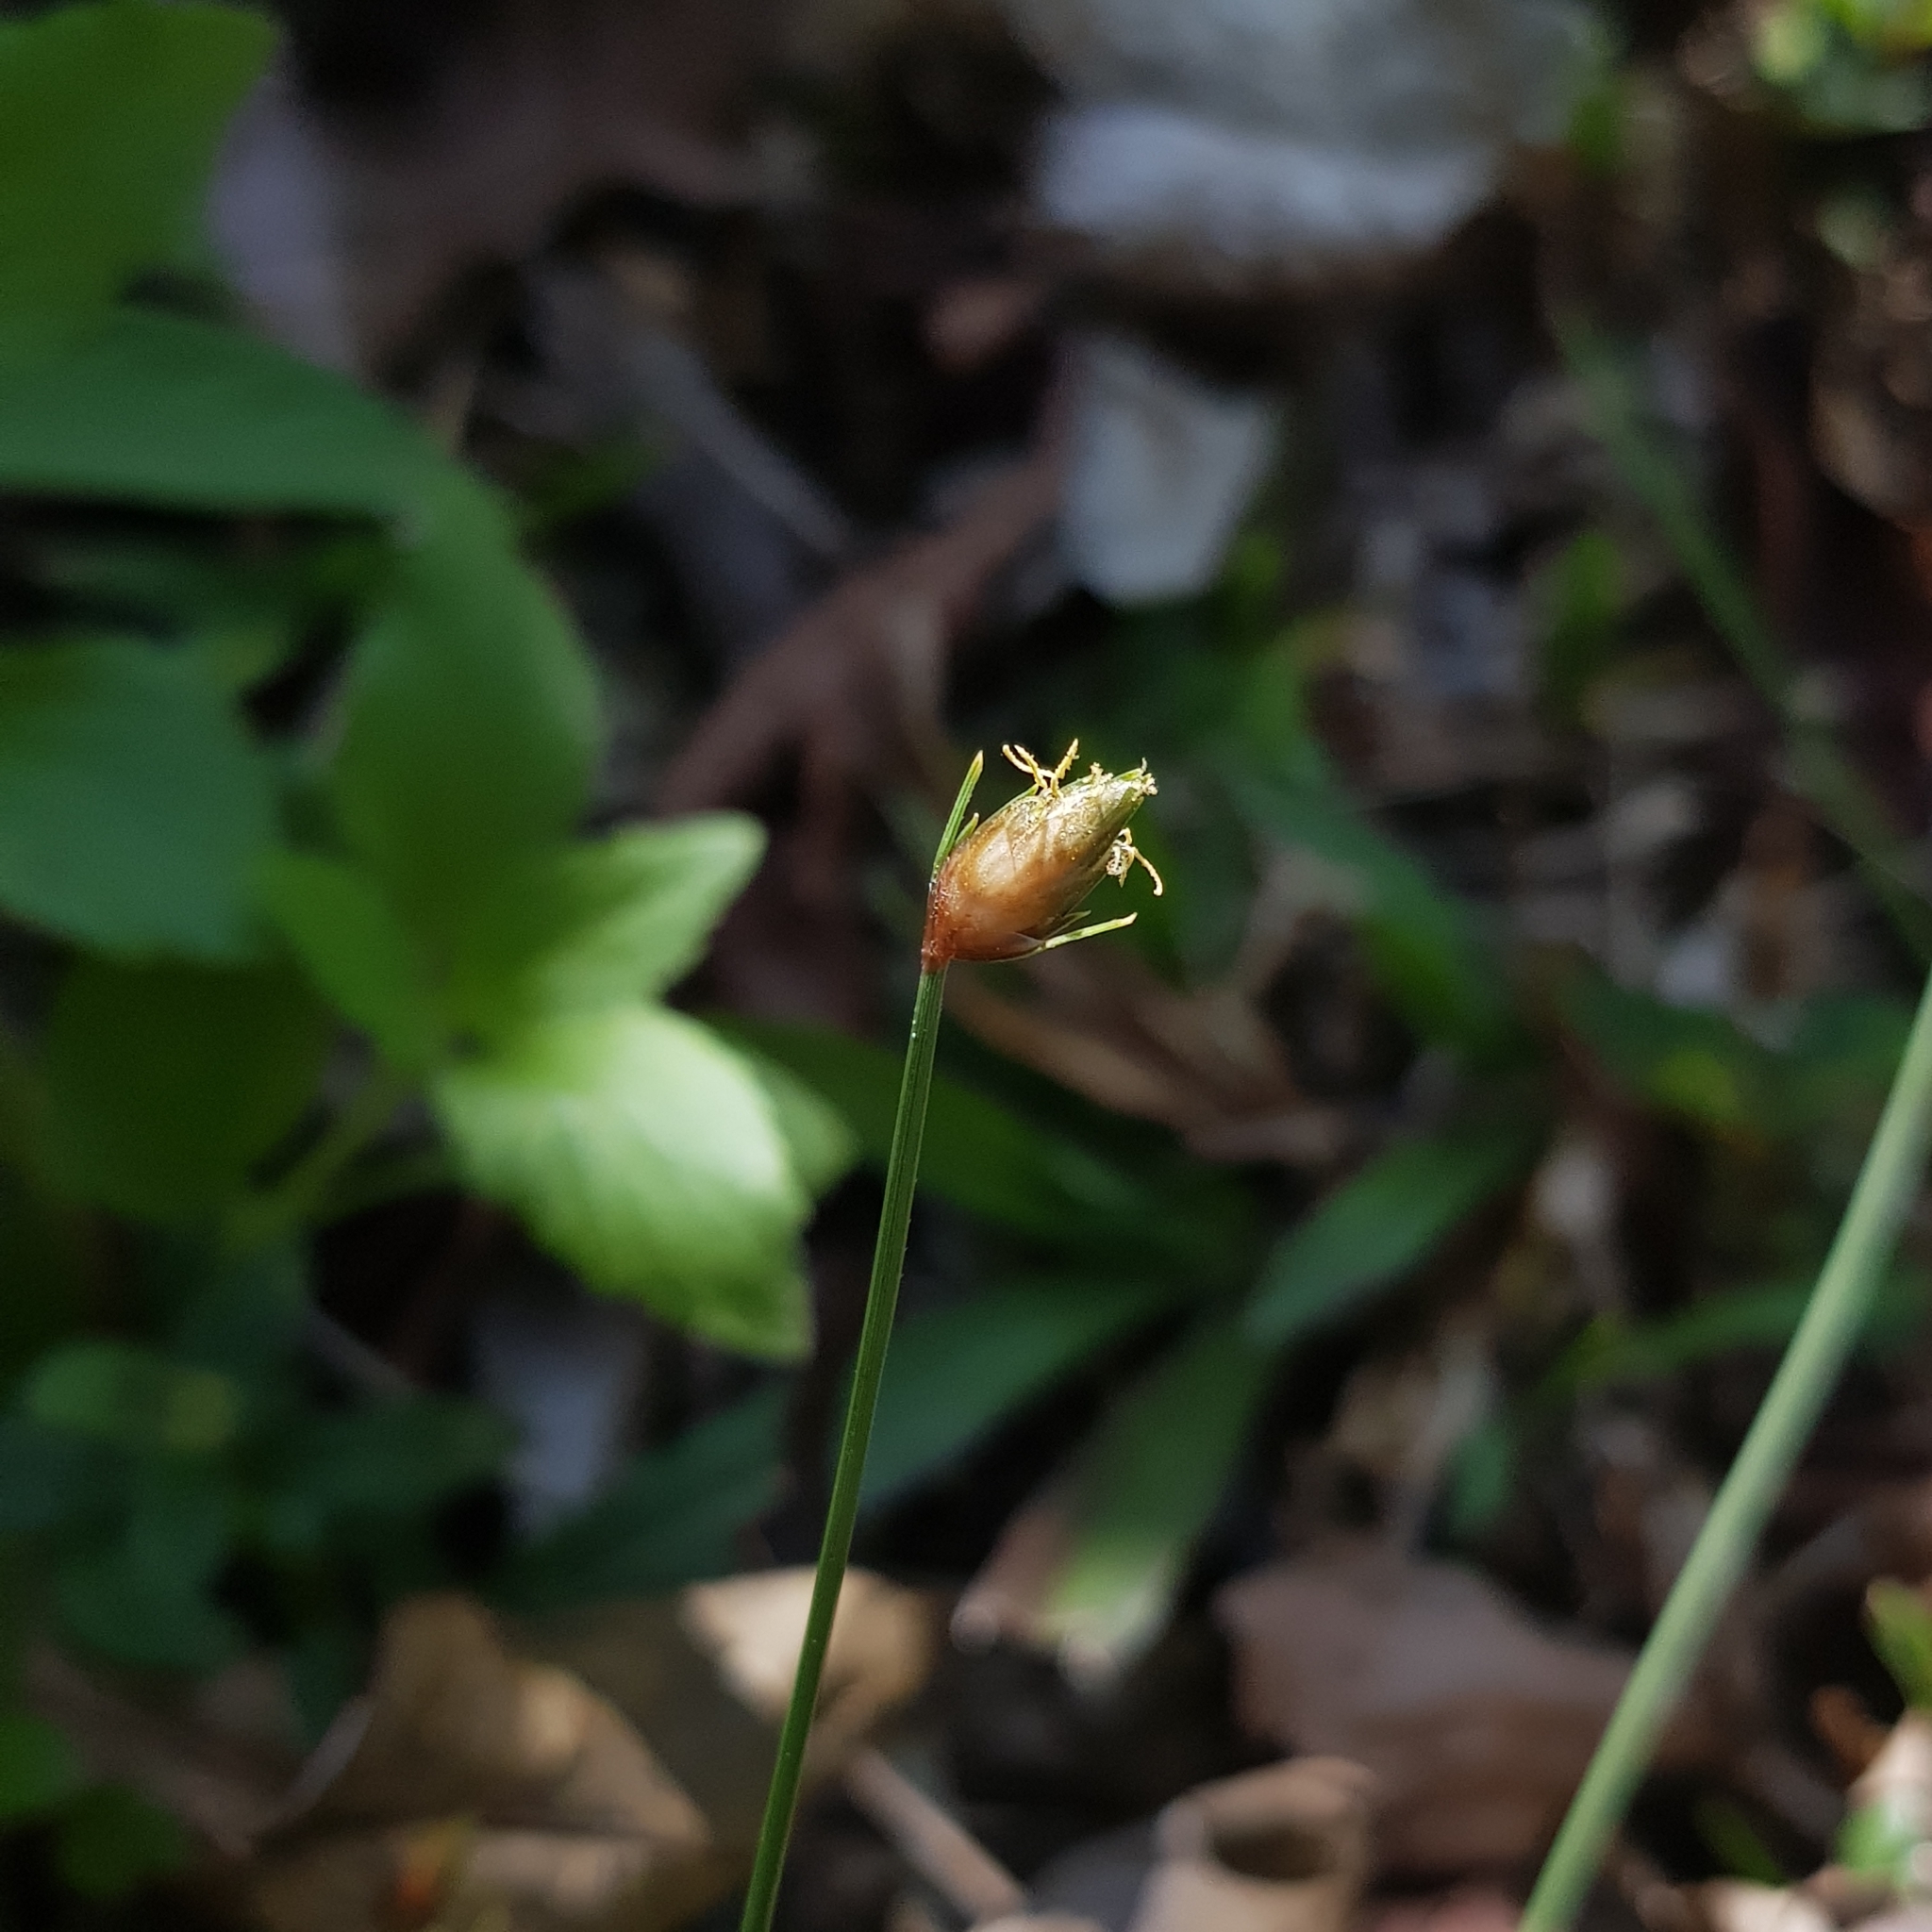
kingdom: Plantae
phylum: Tracheophyta
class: Liliopsida
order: Poales
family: Cyperaceae
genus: Abildgaardia
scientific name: Abildgaardia ovata
